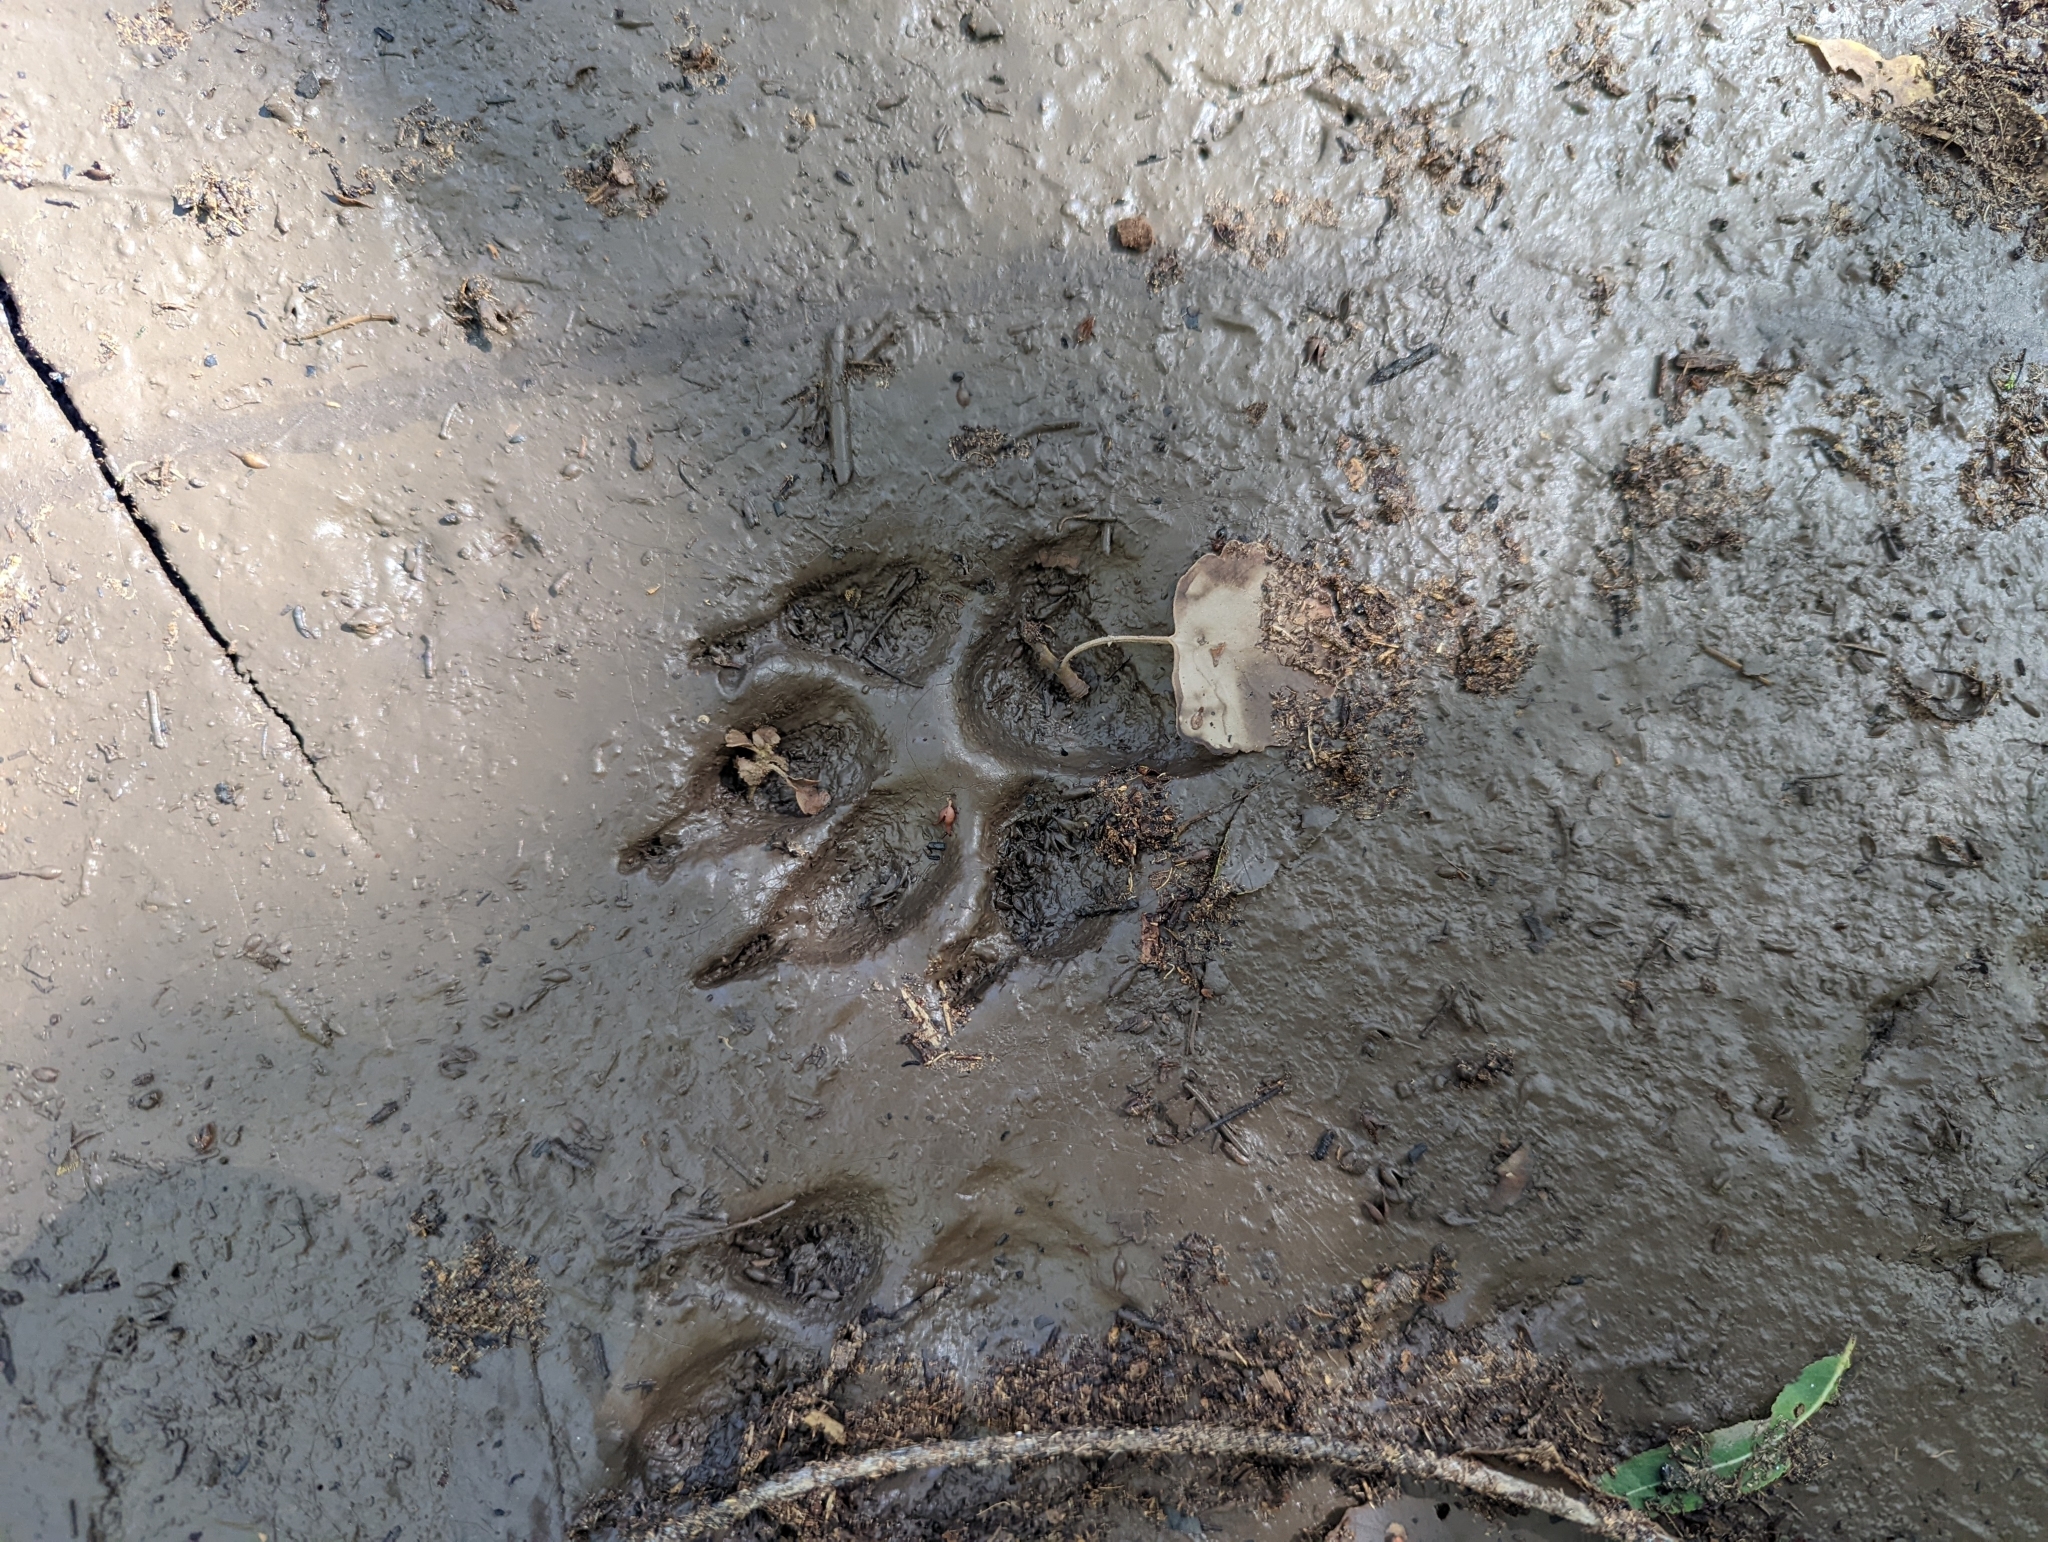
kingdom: Animalia
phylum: Chordata
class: Mammalia
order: Carnivora
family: Canidae
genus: Canis
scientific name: Canis latrans
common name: Coyote
